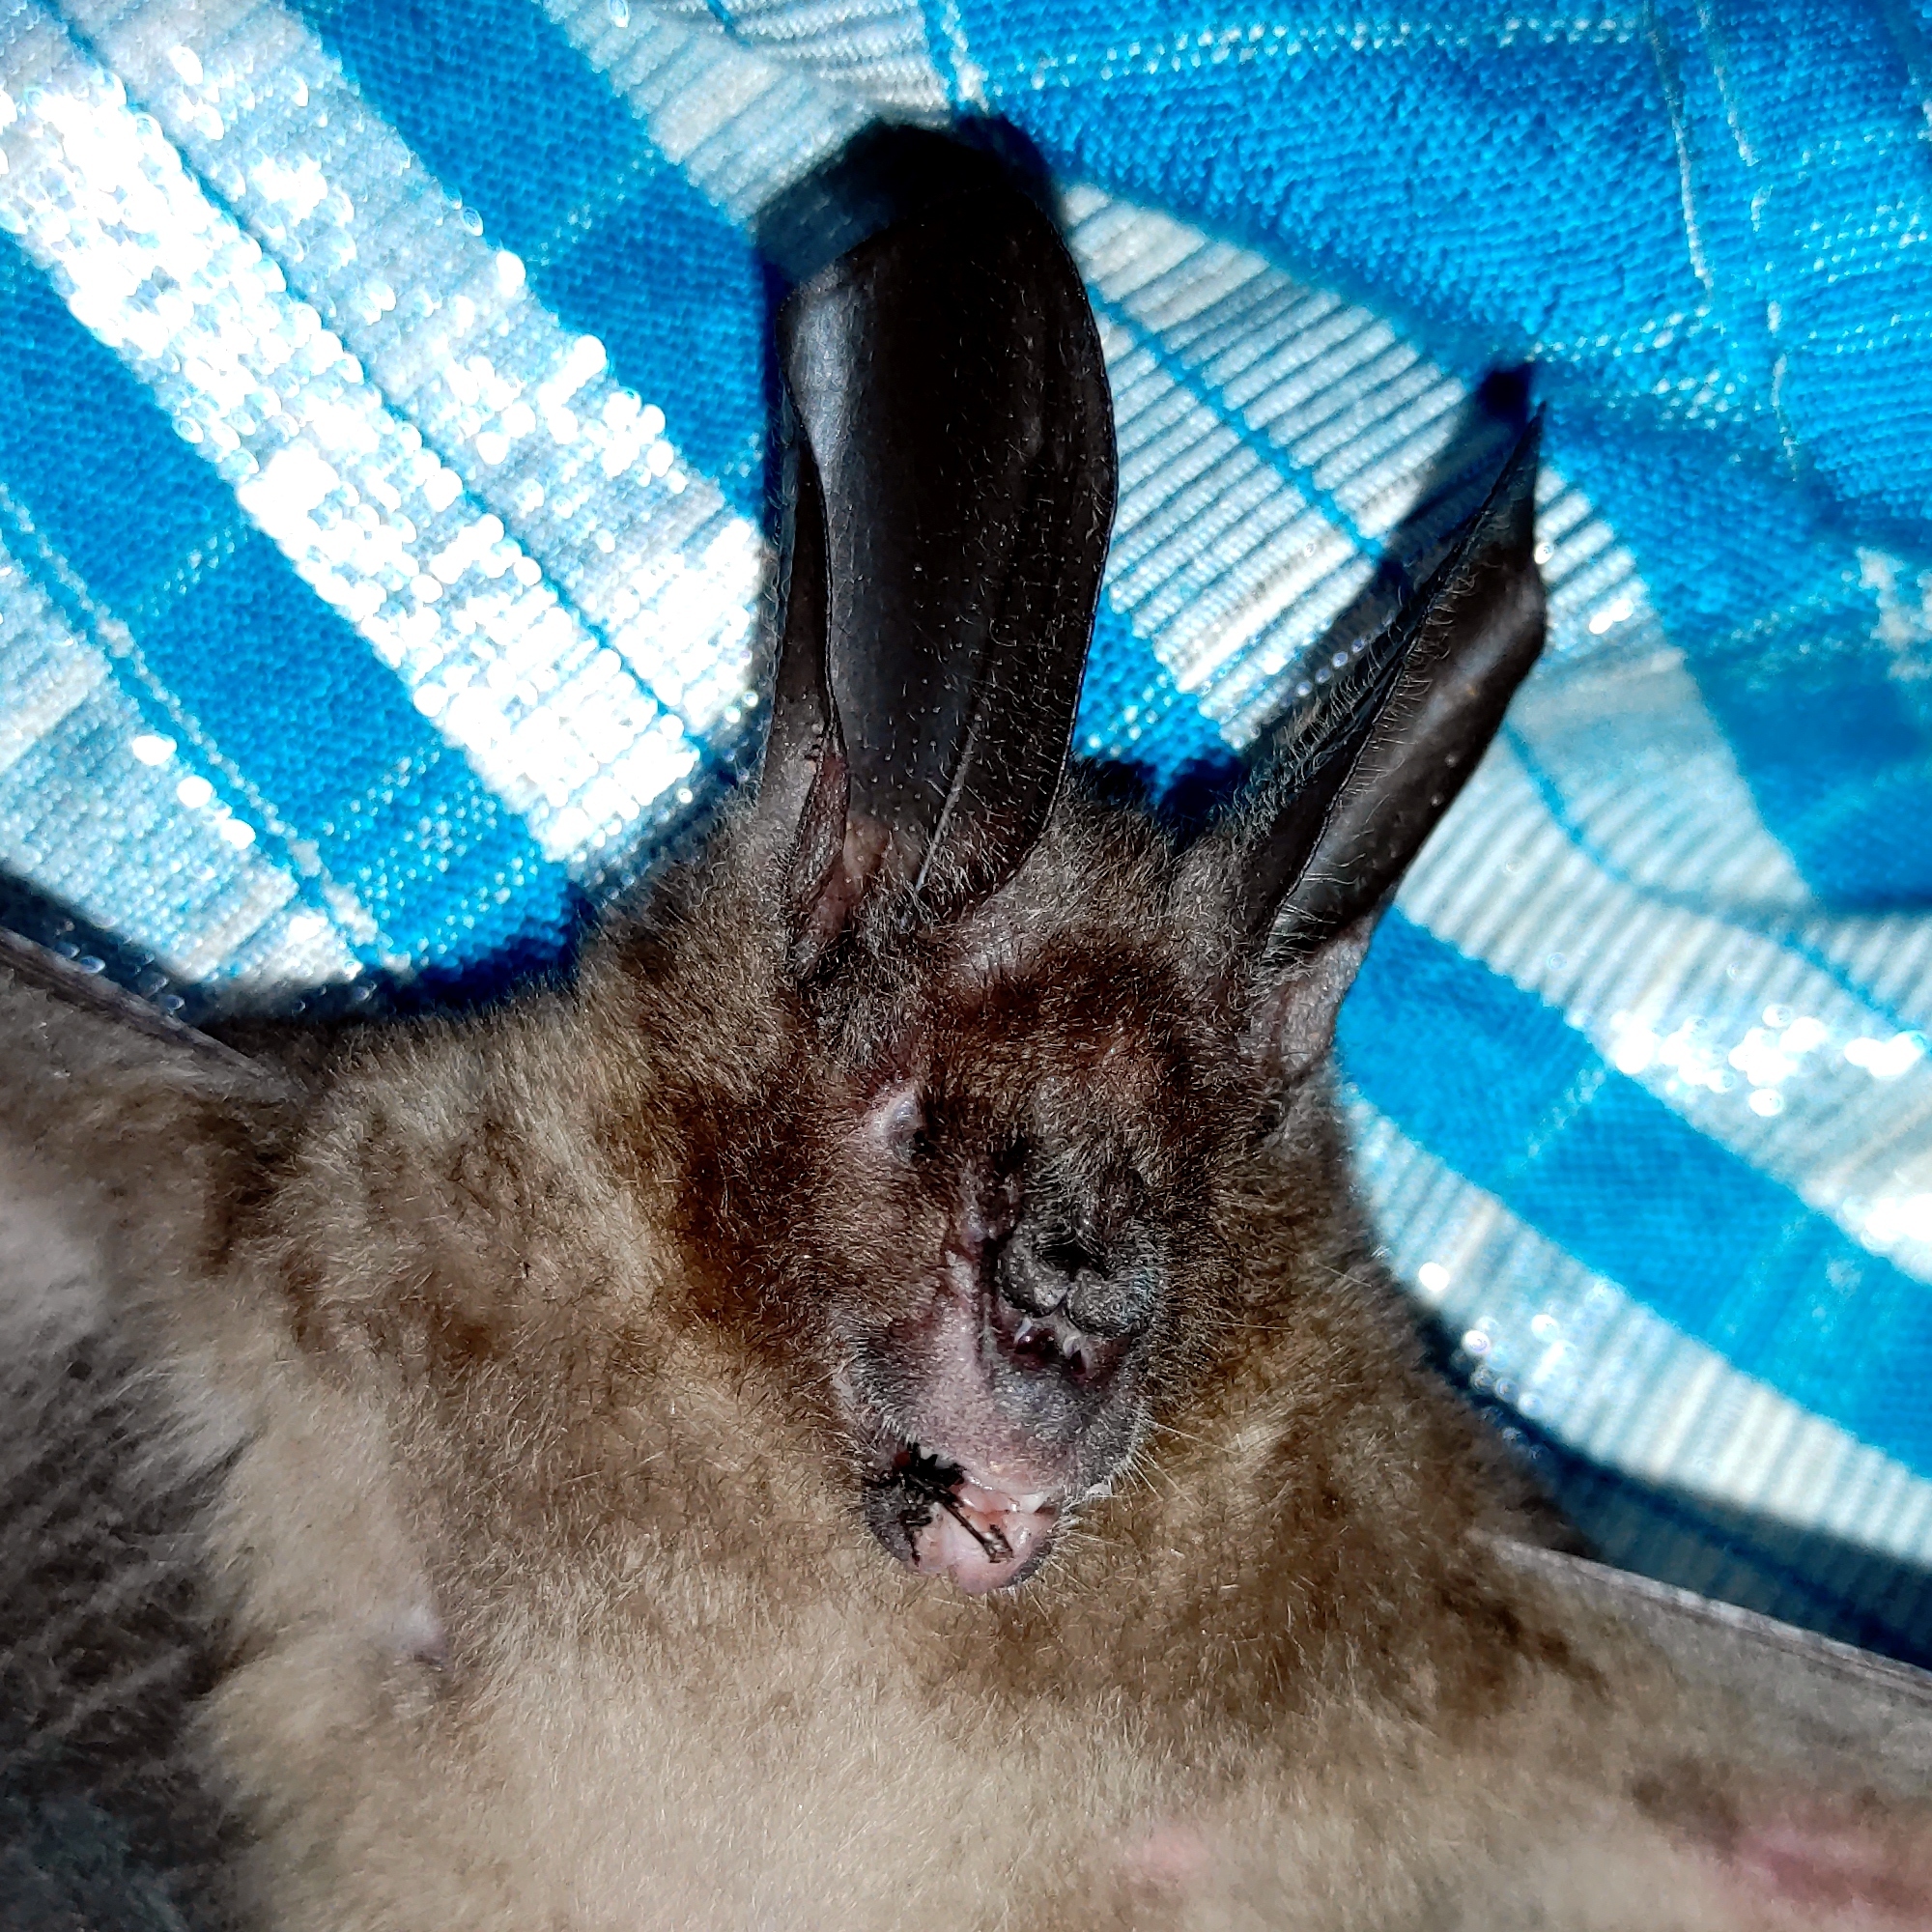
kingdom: Animalia
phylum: Chordata
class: Mammalia
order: Chiroptera
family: Nycteridae
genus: Nycteris
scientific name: Nycteris javanica
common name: Javan slit-faced bat
